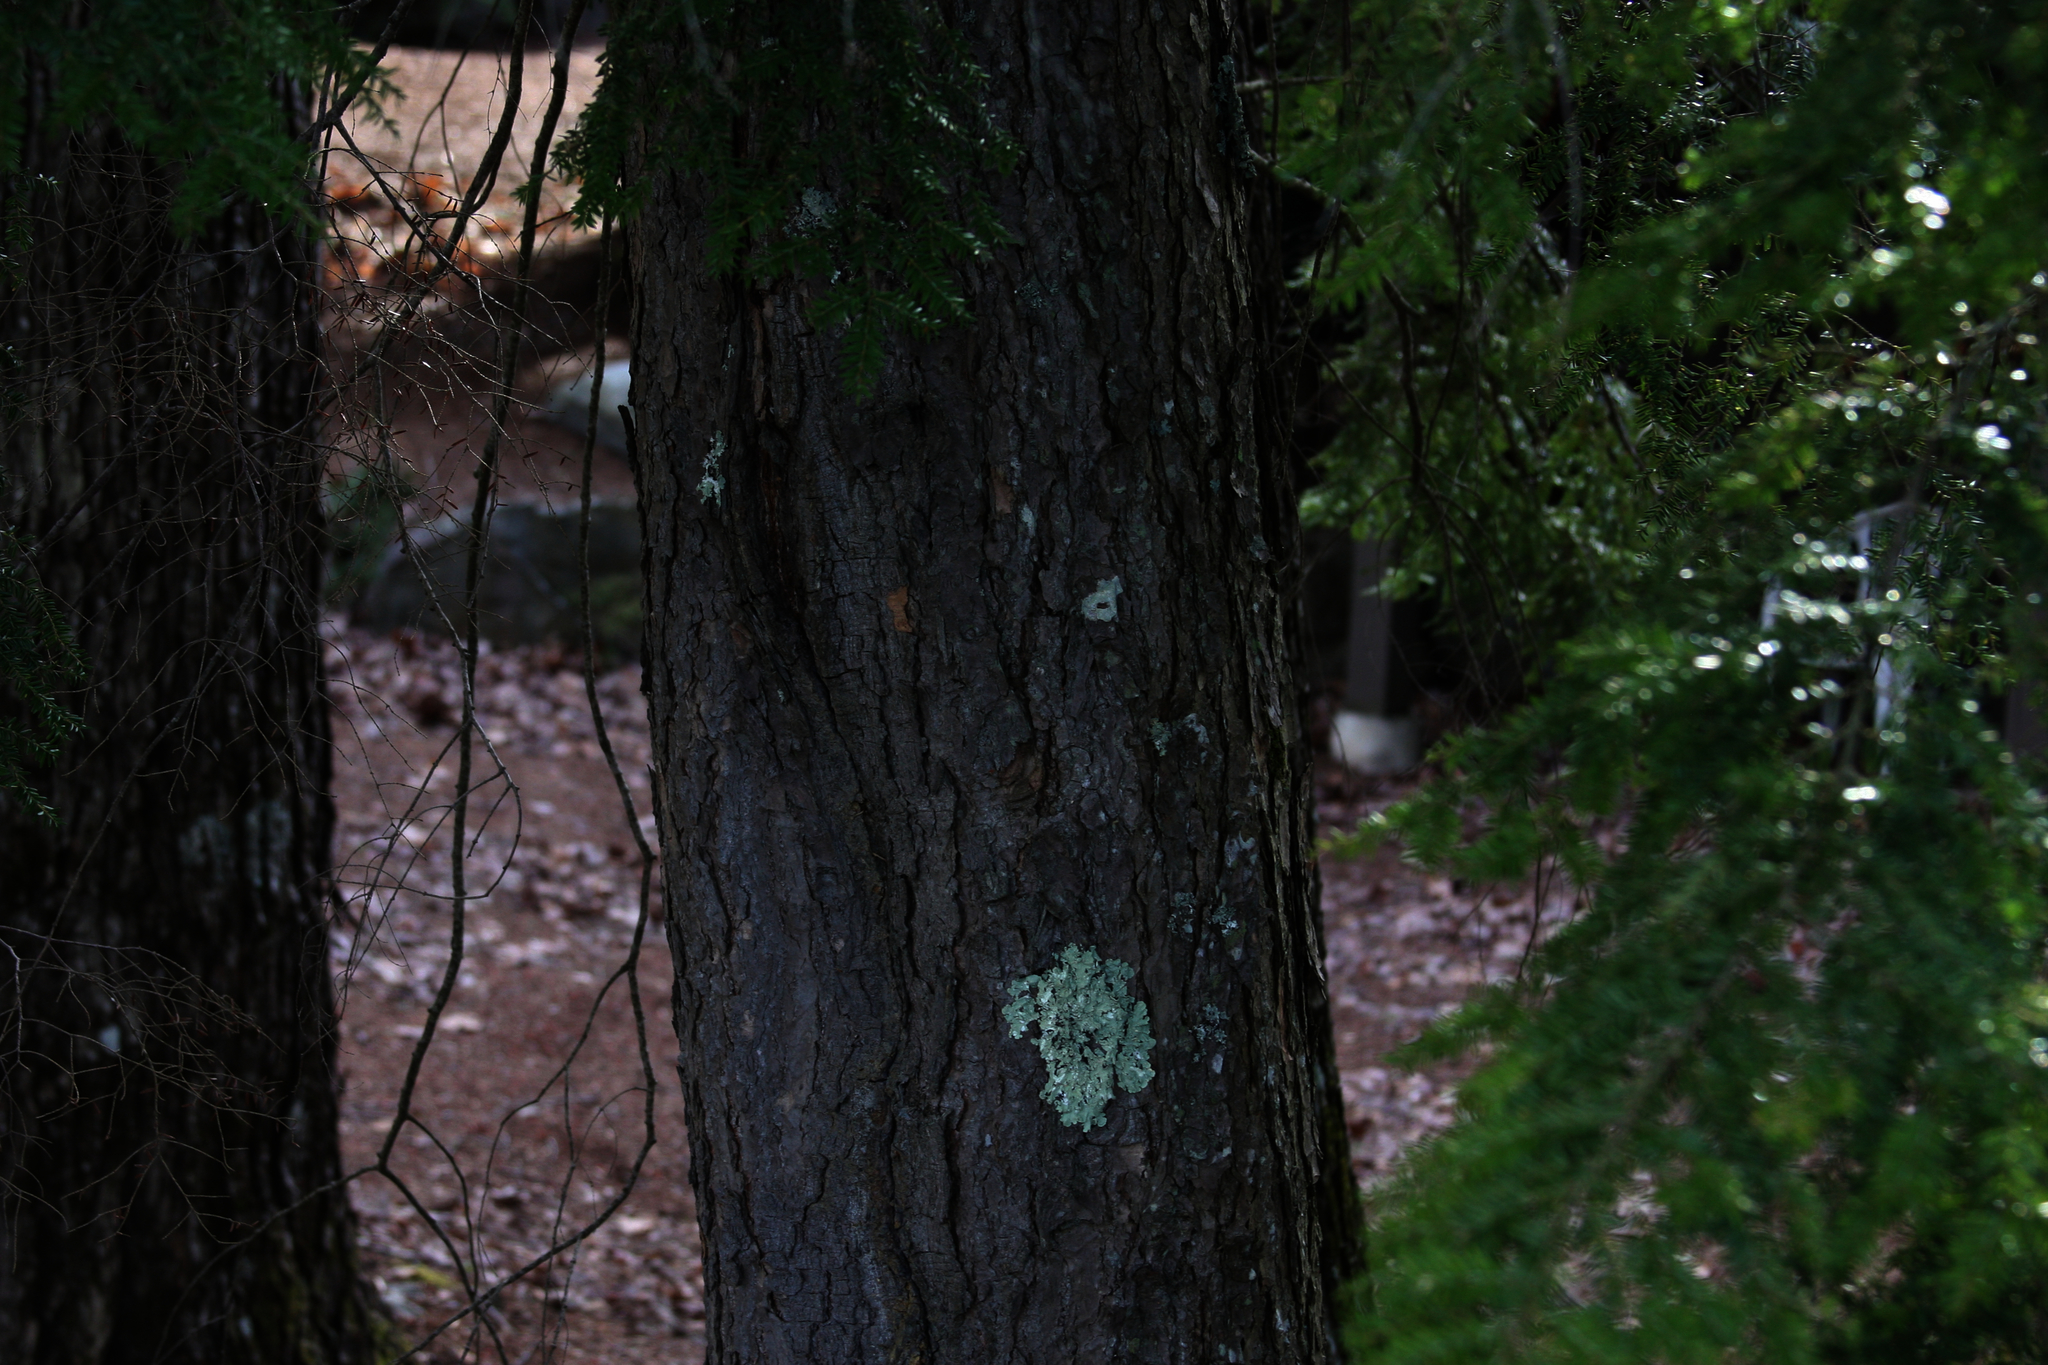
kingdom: Plantae
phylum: Tracheophyta
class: Pinopsida
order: Pinales
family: Pinaceae
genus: Tsuga
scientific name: Tsuga canadensis
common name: Eastern hemlock
